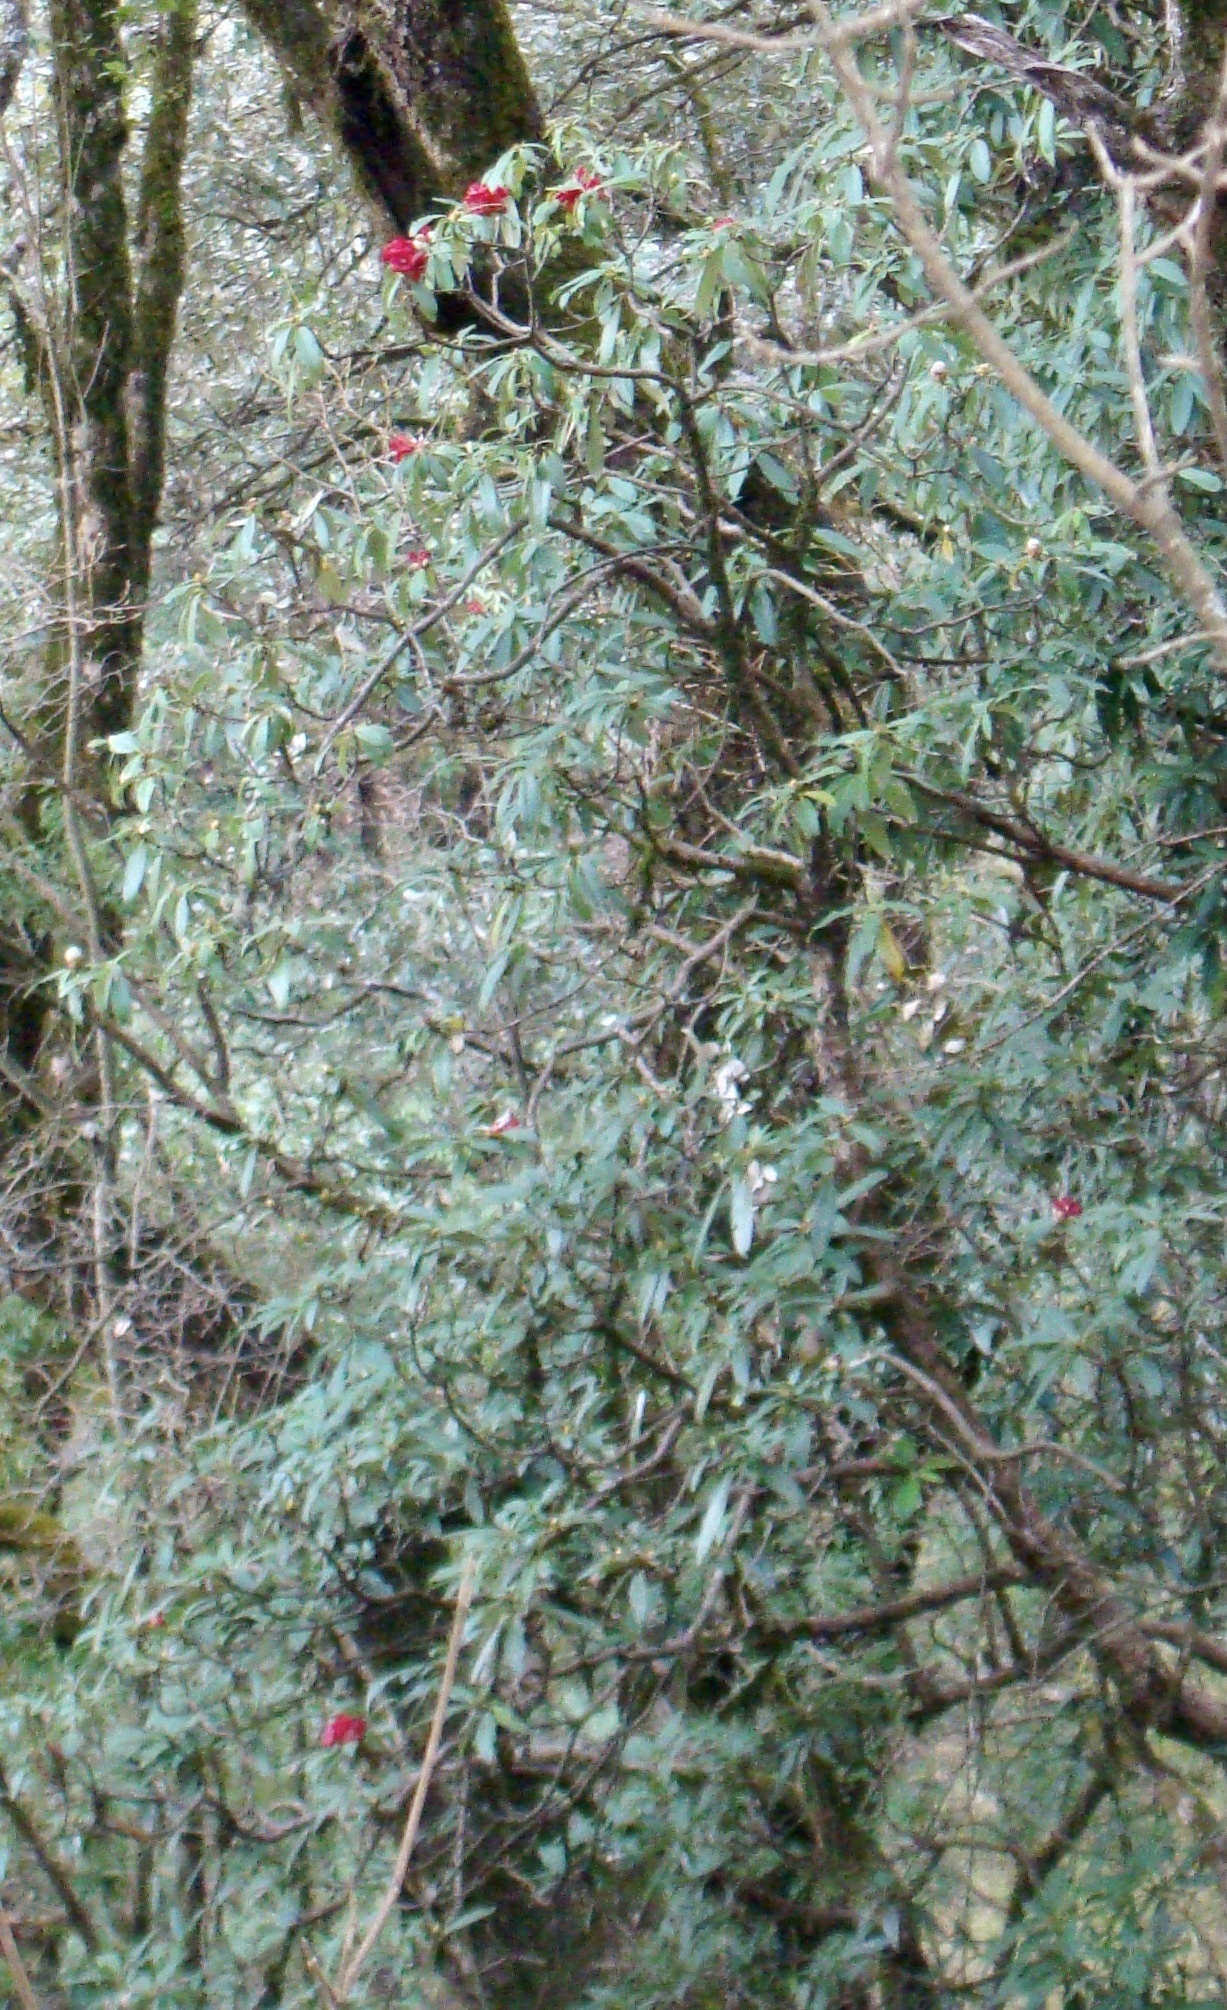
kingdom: Plantae
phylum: Tracheophyta
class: Magnoliopsida
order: Ericales
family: Ericaceae
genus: Rhododendron
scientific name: Rhododendron arboreum
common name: Tree rhododendron
